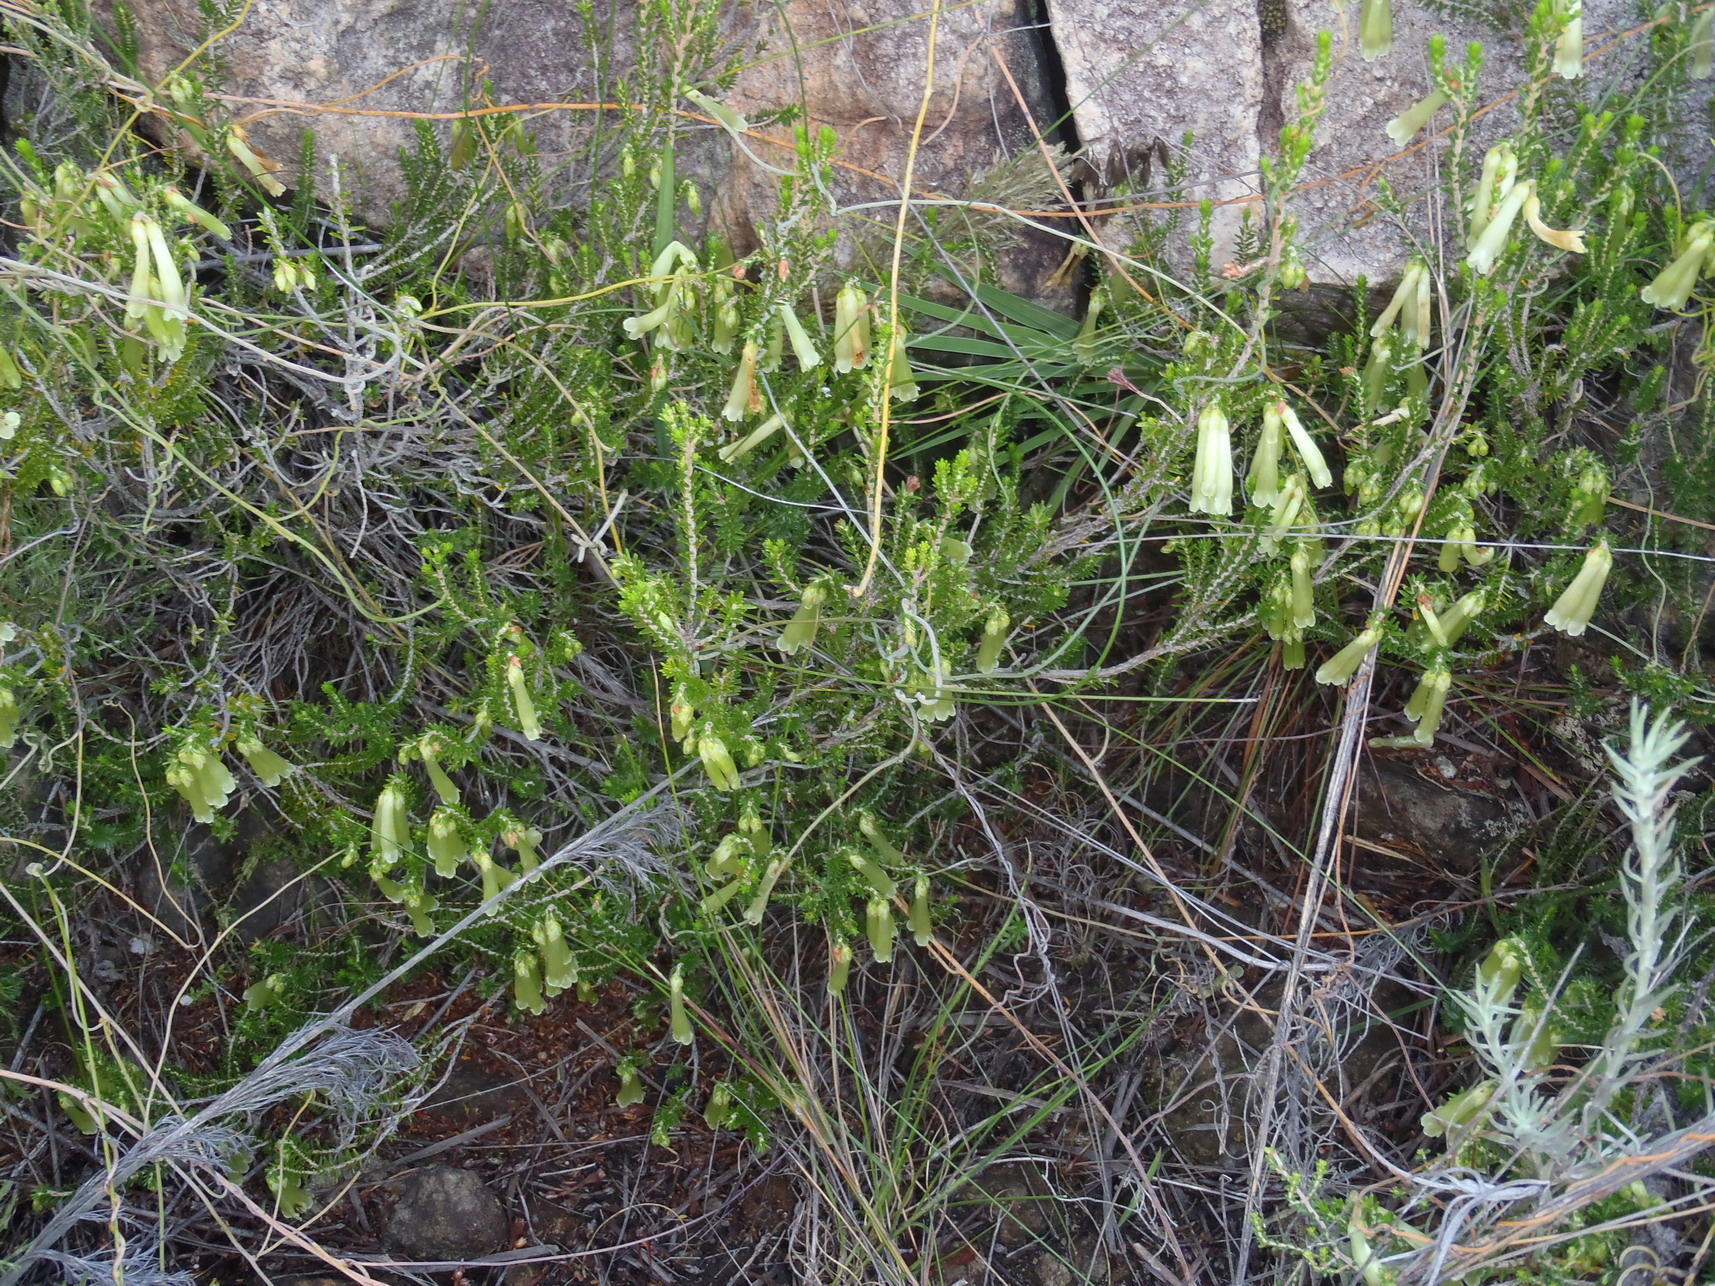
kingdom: Plantae
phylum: Tracheophyta
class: Magnoliopsida
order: Ericales
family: Ericaceae
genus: Erica
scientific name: Erica viridiflora
